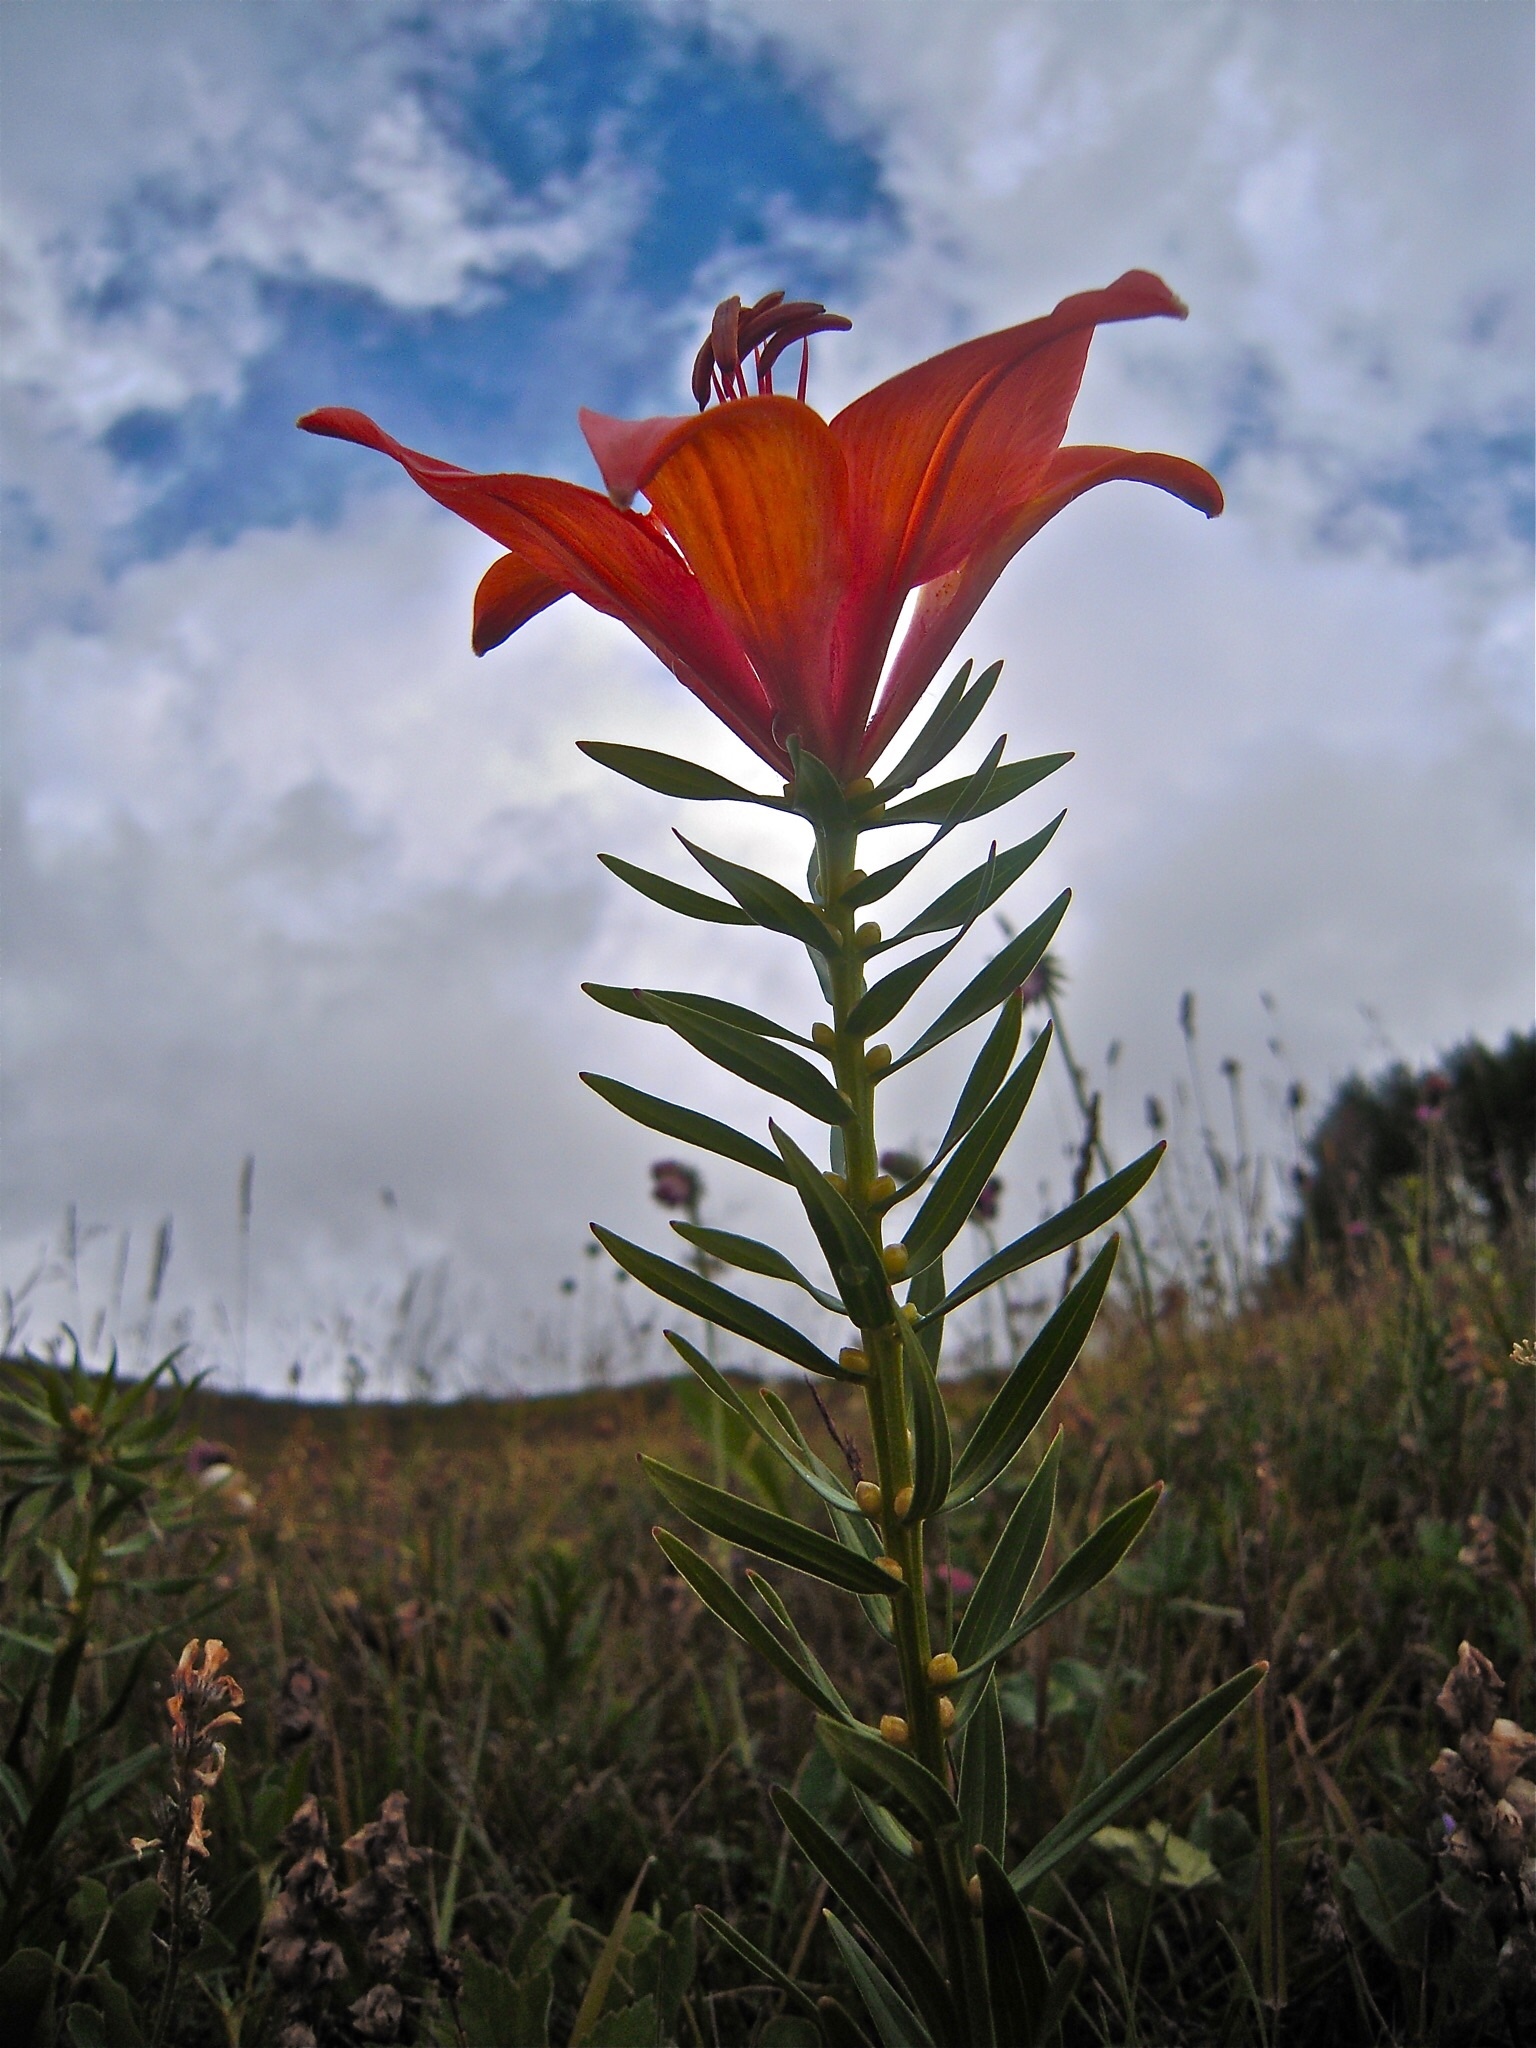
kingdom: Plantae
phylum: Tracheophyta
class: Liliopsida
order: Liliales
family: Liliaceae
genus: Lilium
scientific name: Lilium bulbiferum
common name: Orange lily
